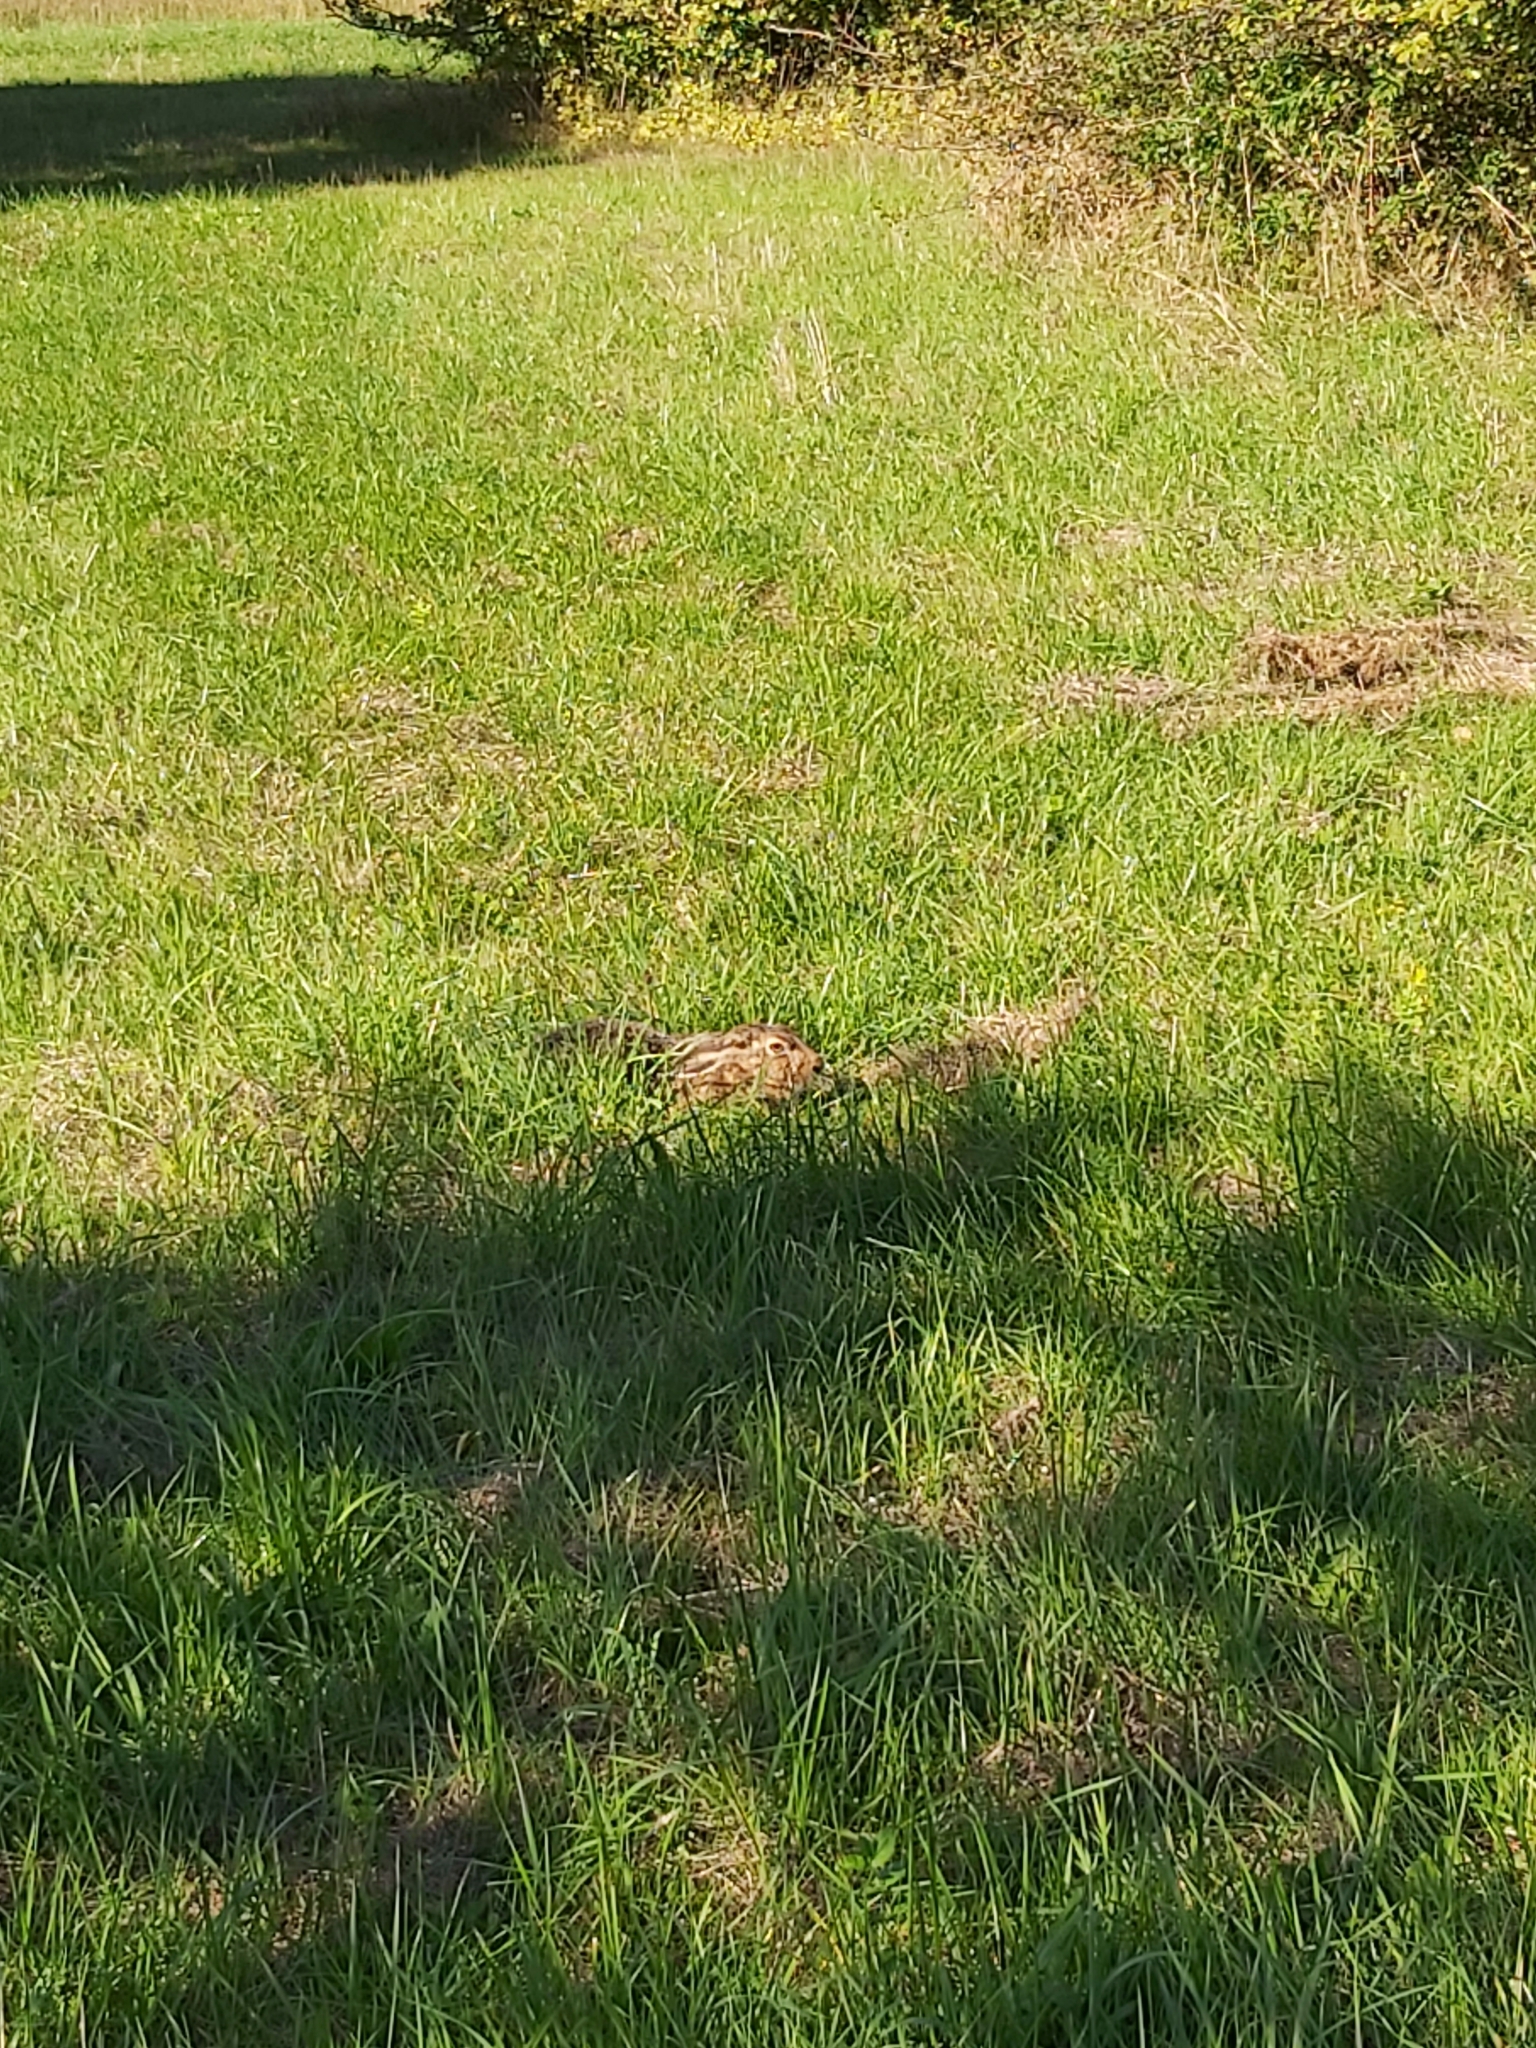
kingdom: Animalia
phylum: Chordata
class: Mammalia
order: Lagomorpha
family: Leporidae
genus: Lepus
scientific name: Lepus europaeus
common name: European hare
